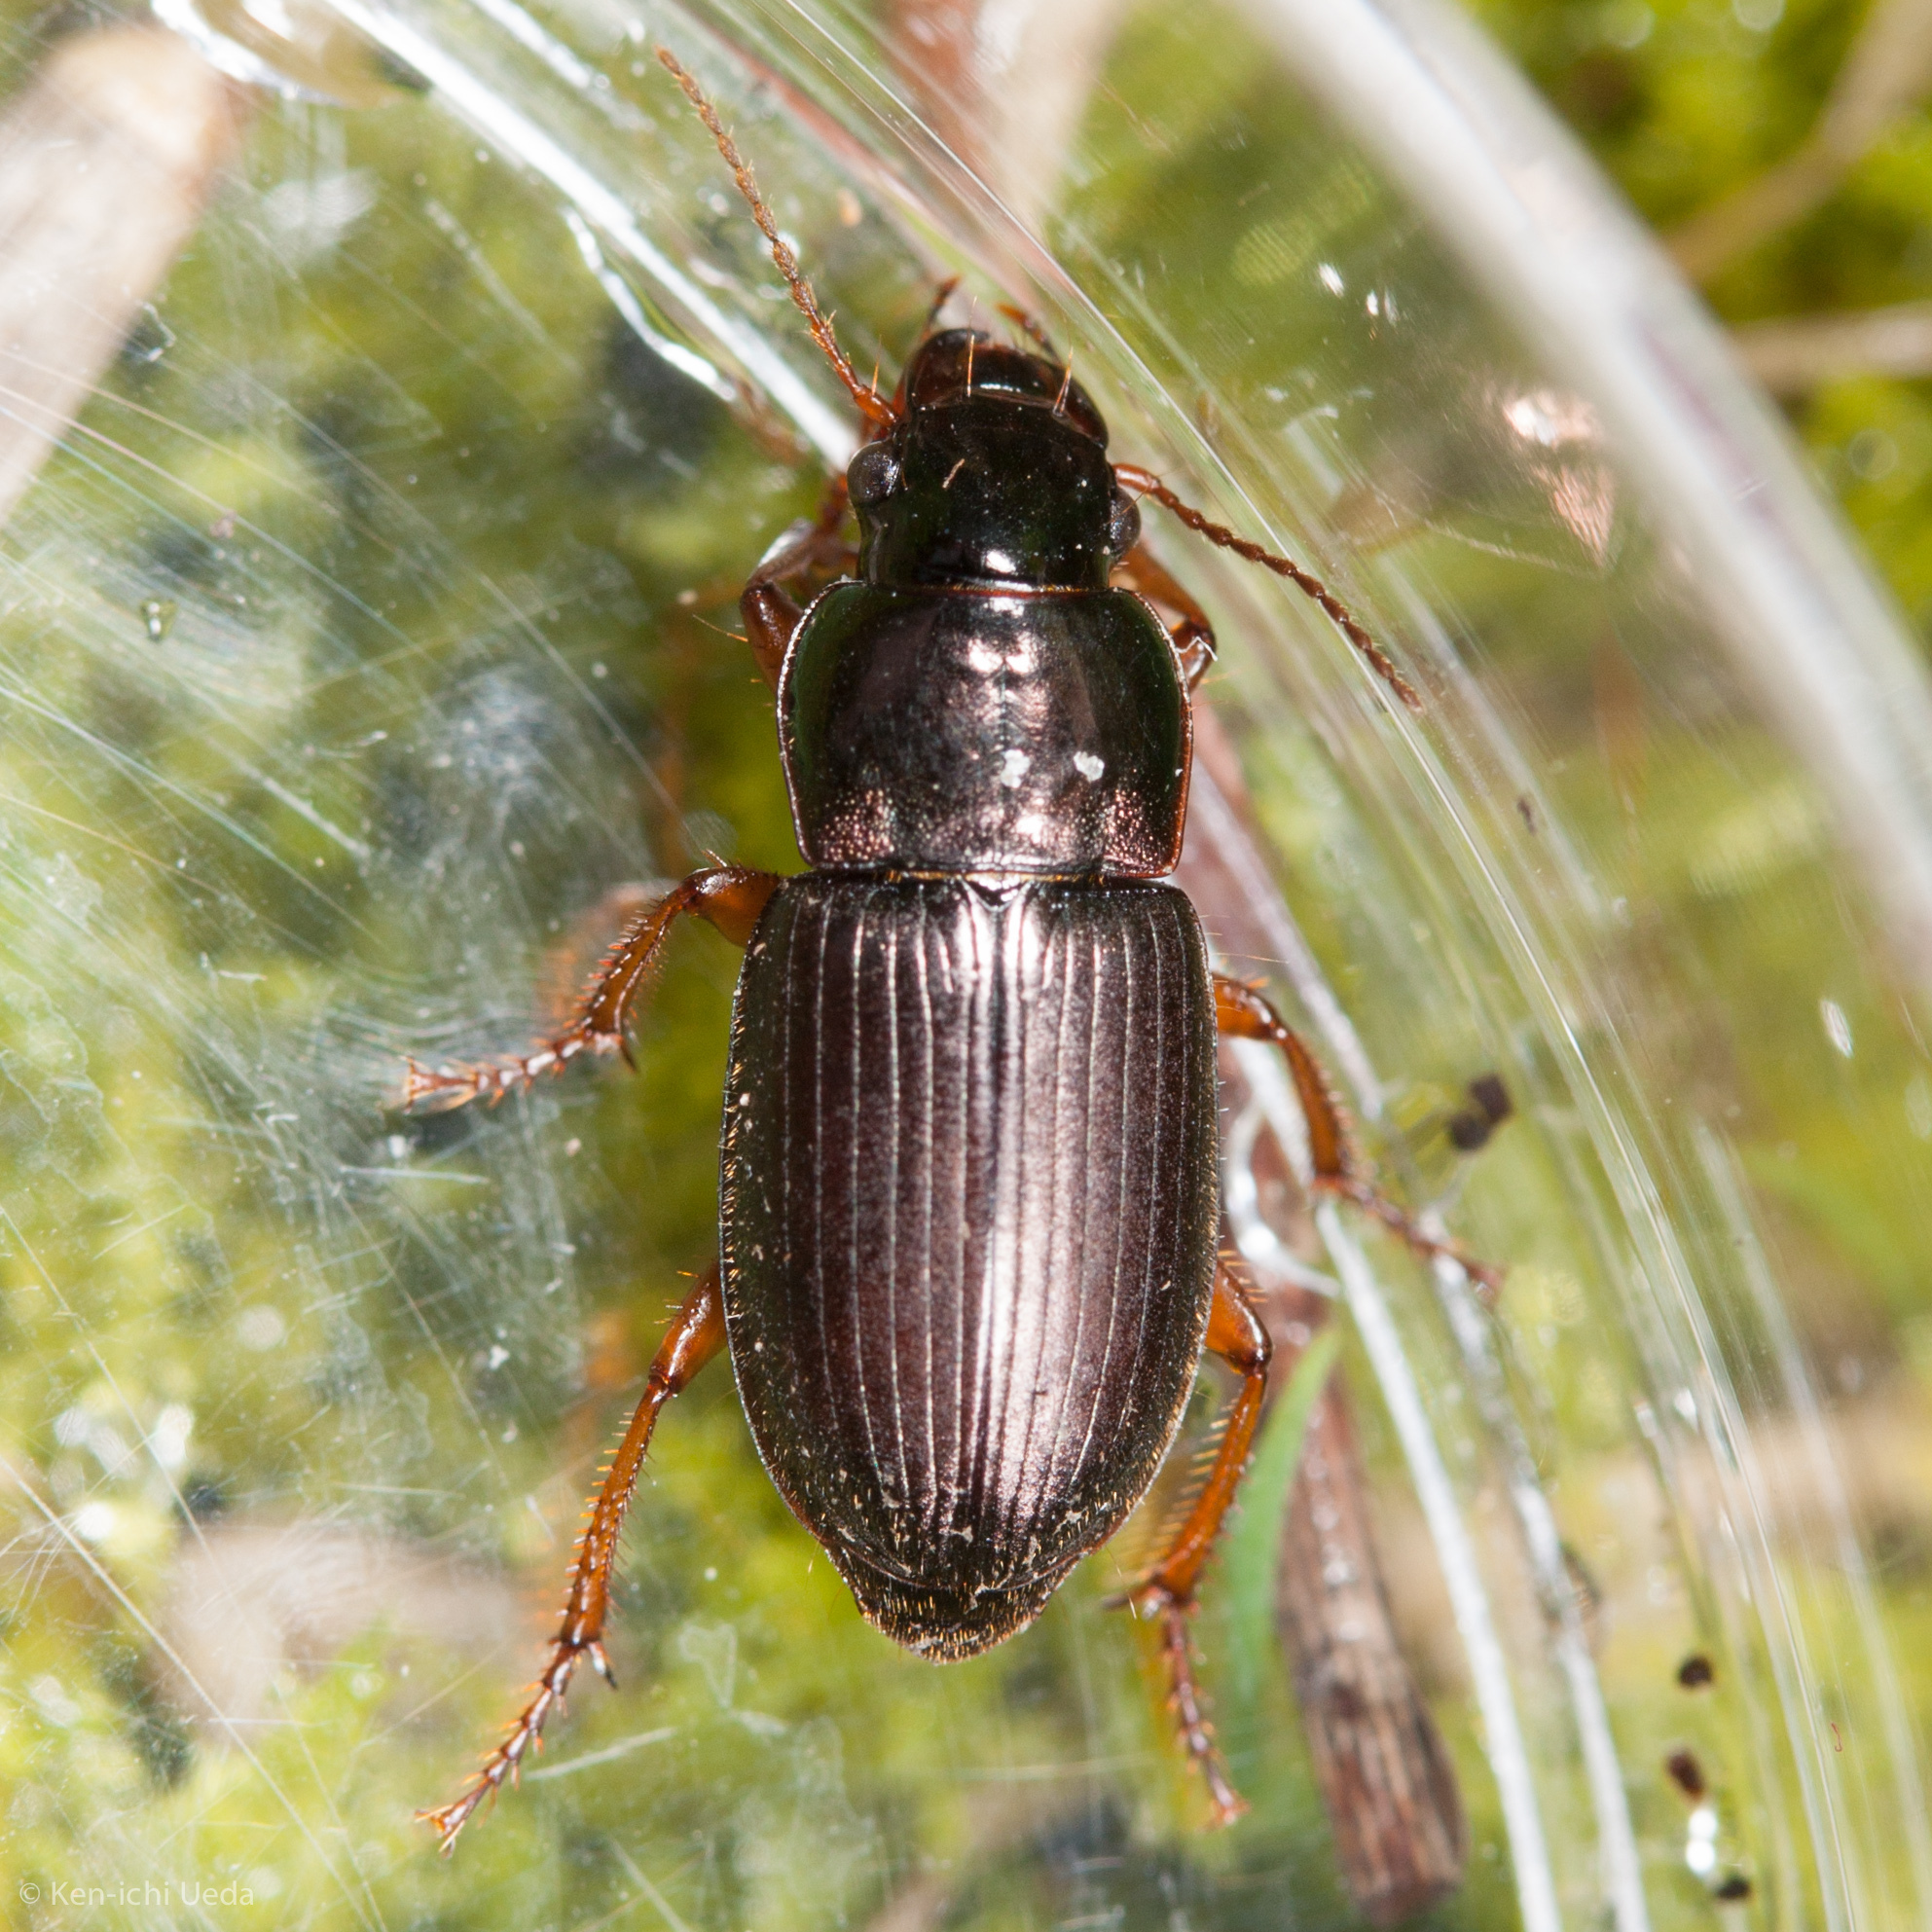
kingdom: Animalia
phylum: Arthropoda
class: Insecta
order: Coleoptera
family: Carabidae
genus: Harpalus
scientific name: Harpalus affinis
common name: Polychrome harp ground beetle
